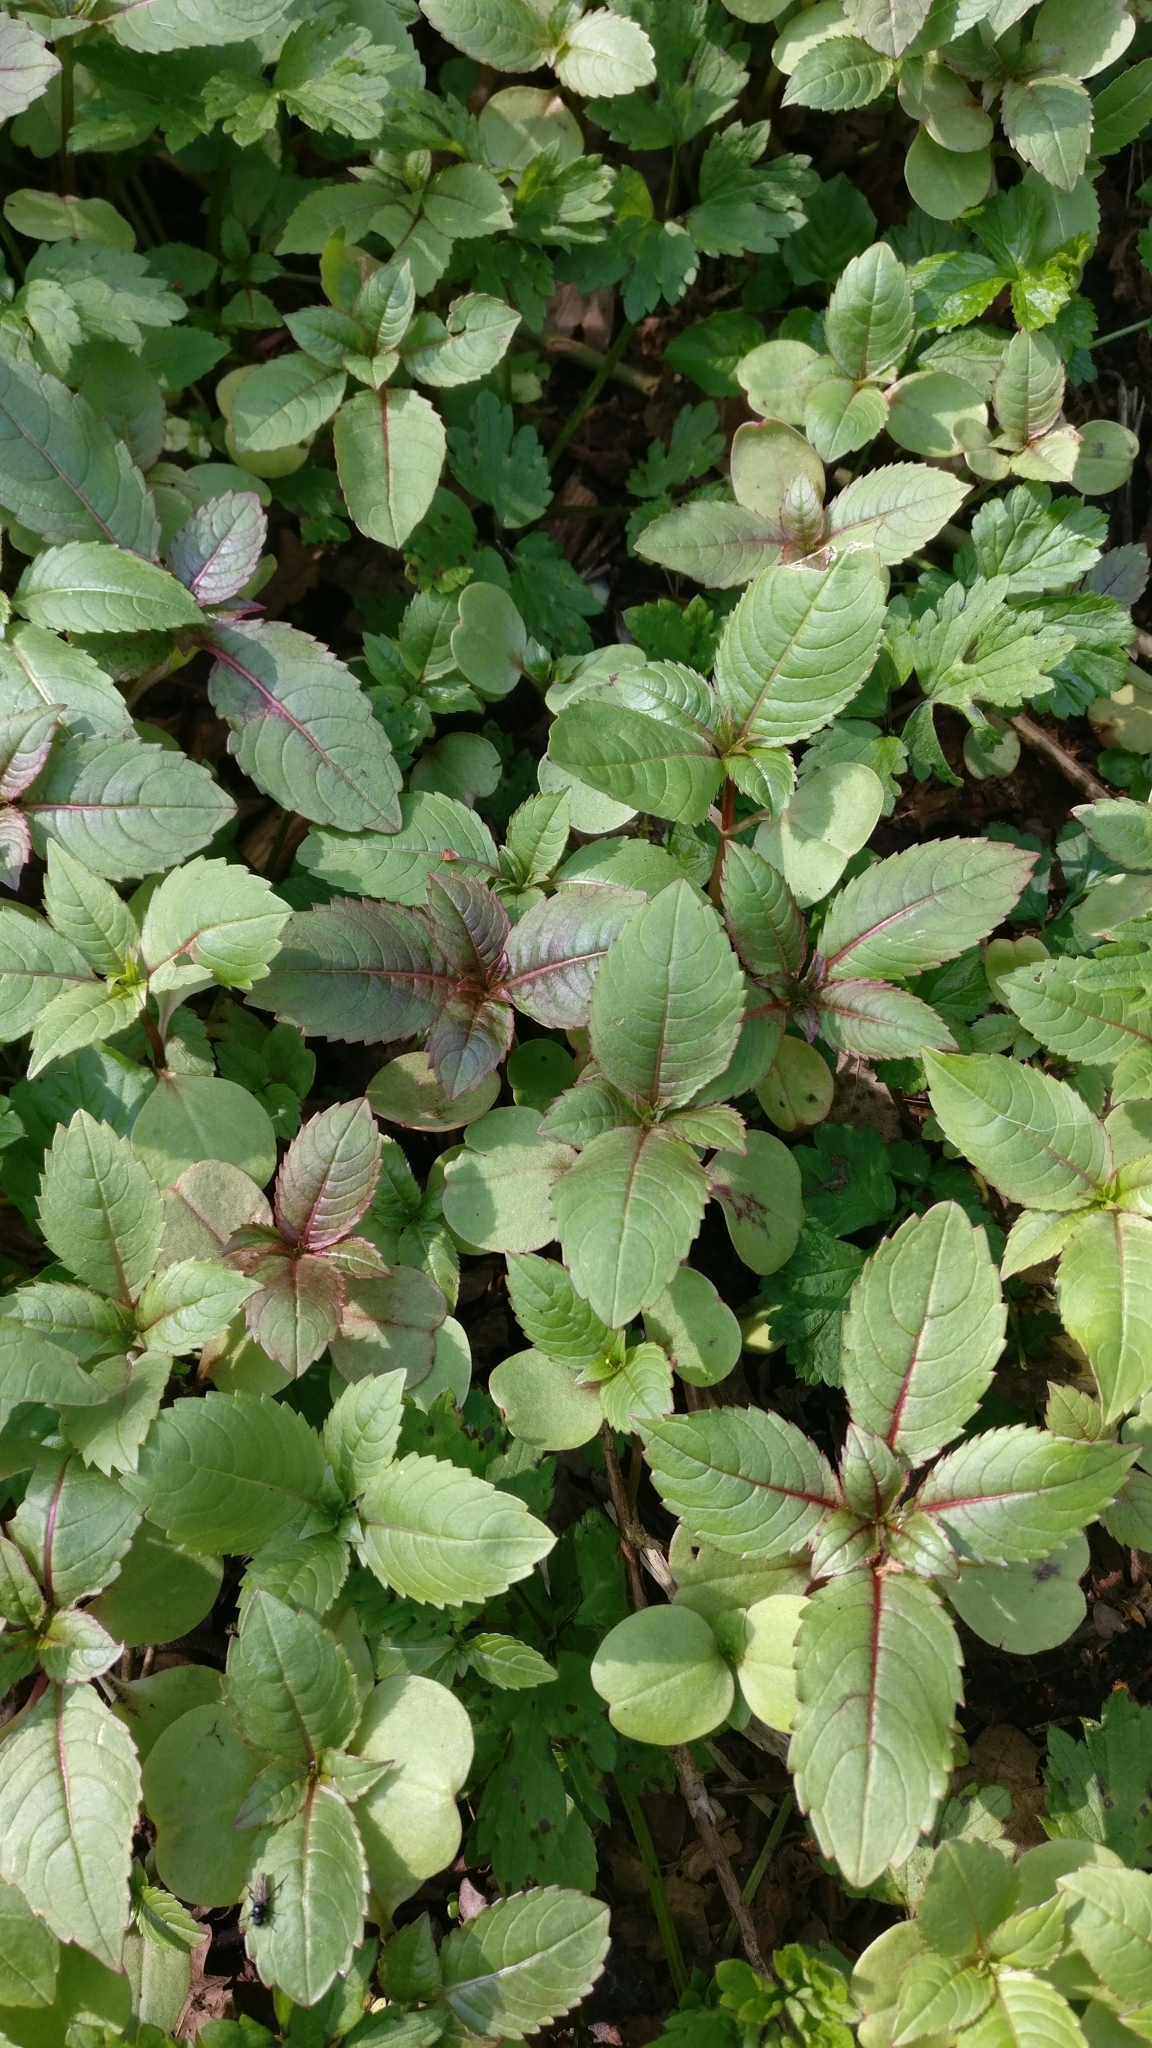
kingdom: Plantae
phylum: Tracheophyta
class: Magnoliopsida
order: Ericales
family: Balsaminaceae
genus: Impatiens
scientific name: Impatiens glandulifera
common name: Himalayan balsam
